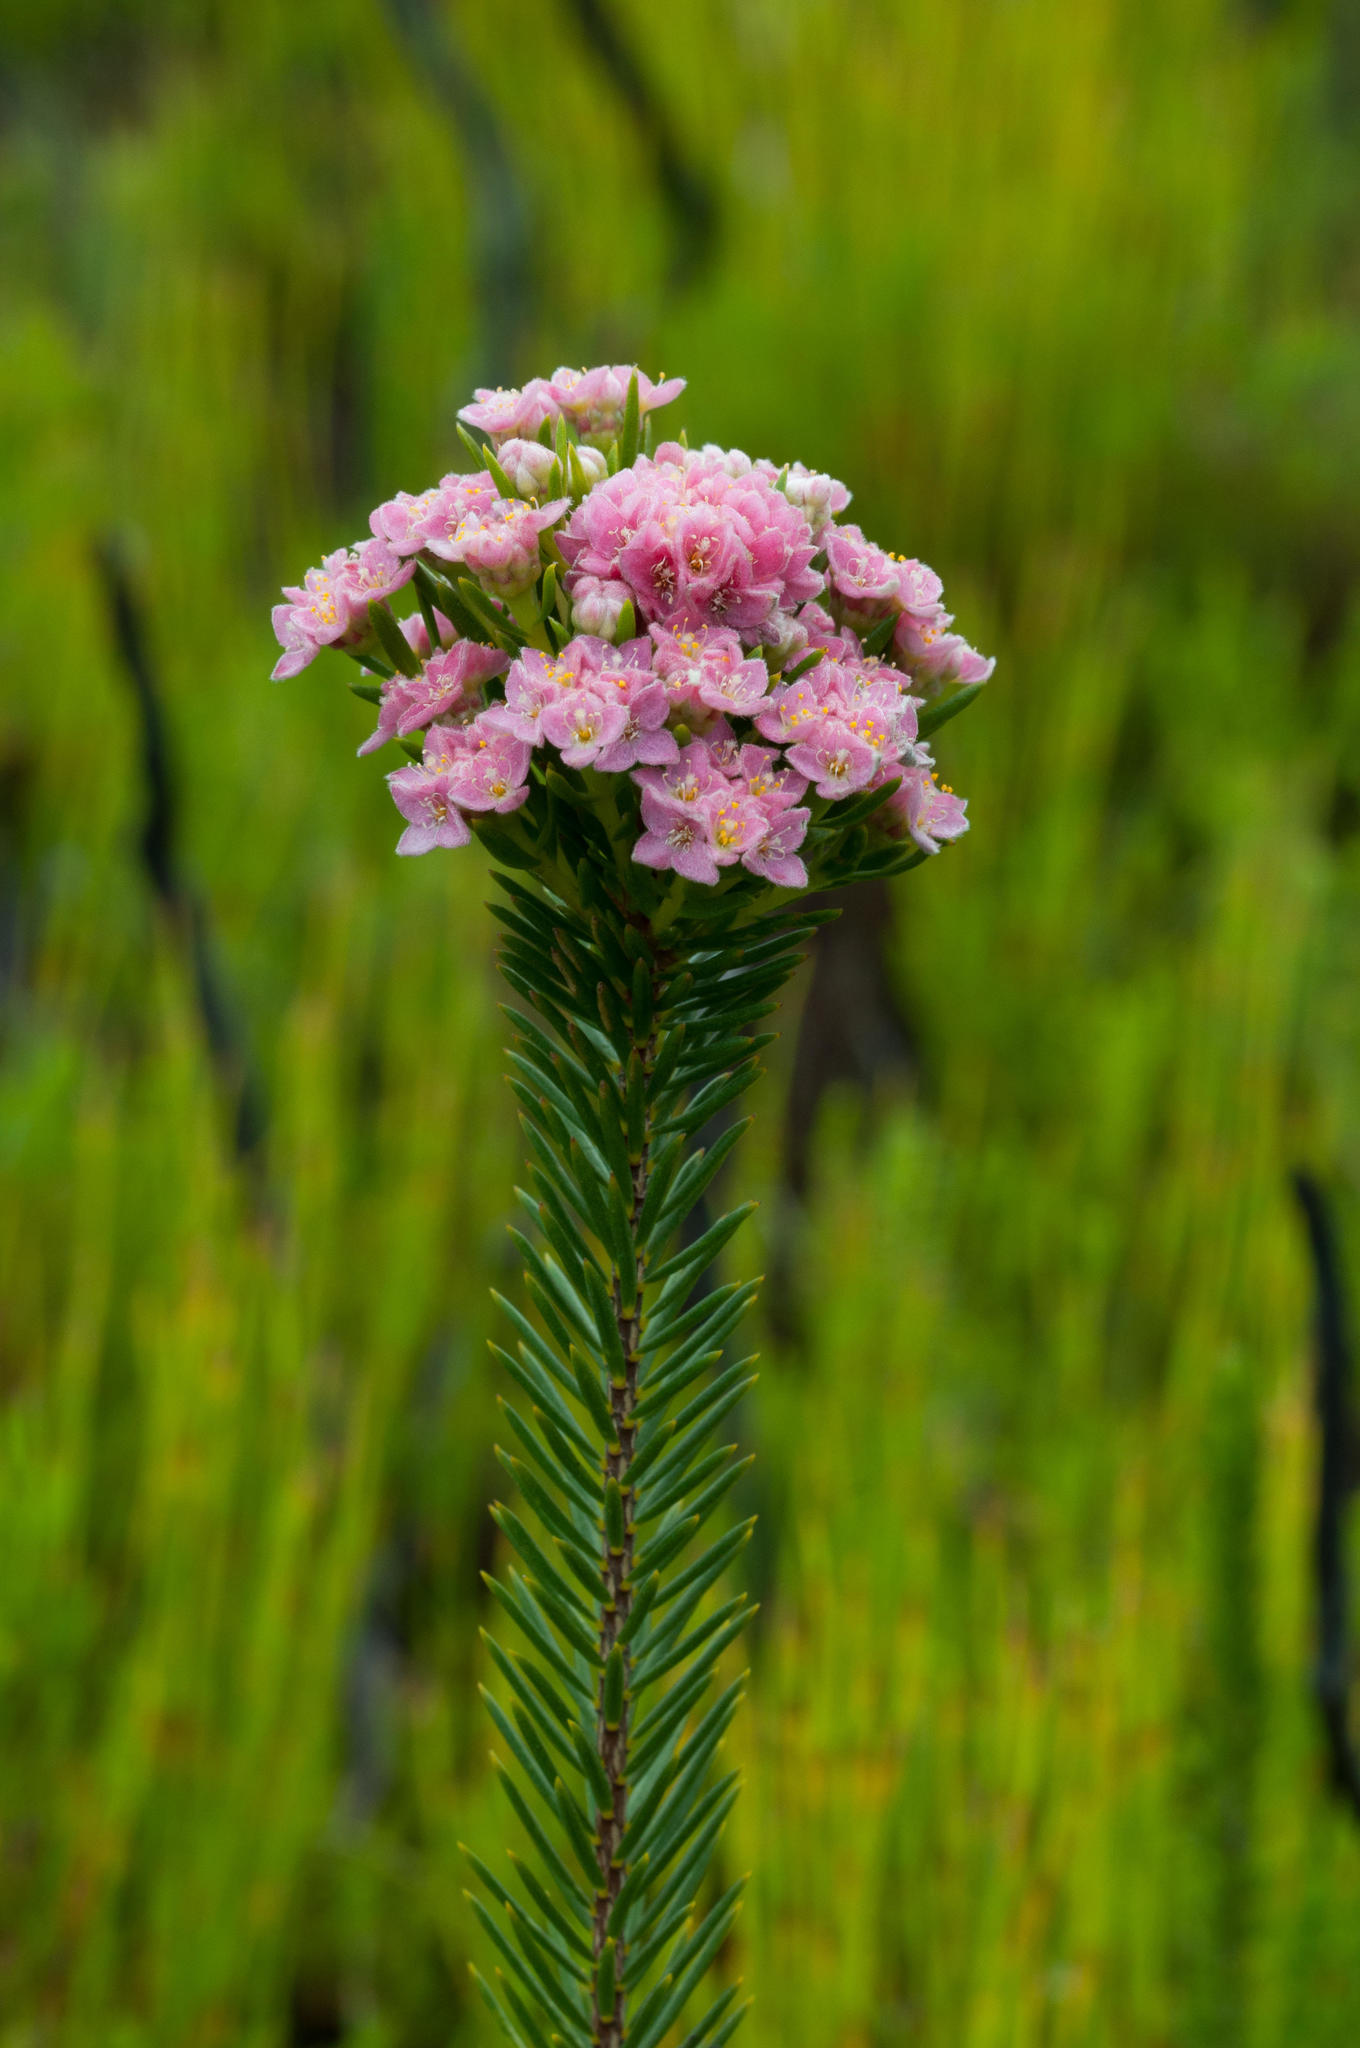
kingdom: Plantae
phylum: Tracheophyta
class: Magnoliopsida
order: Malvales
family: Thymelaeaceae
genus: Lachnaea
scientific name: Lachnaea densiflora
